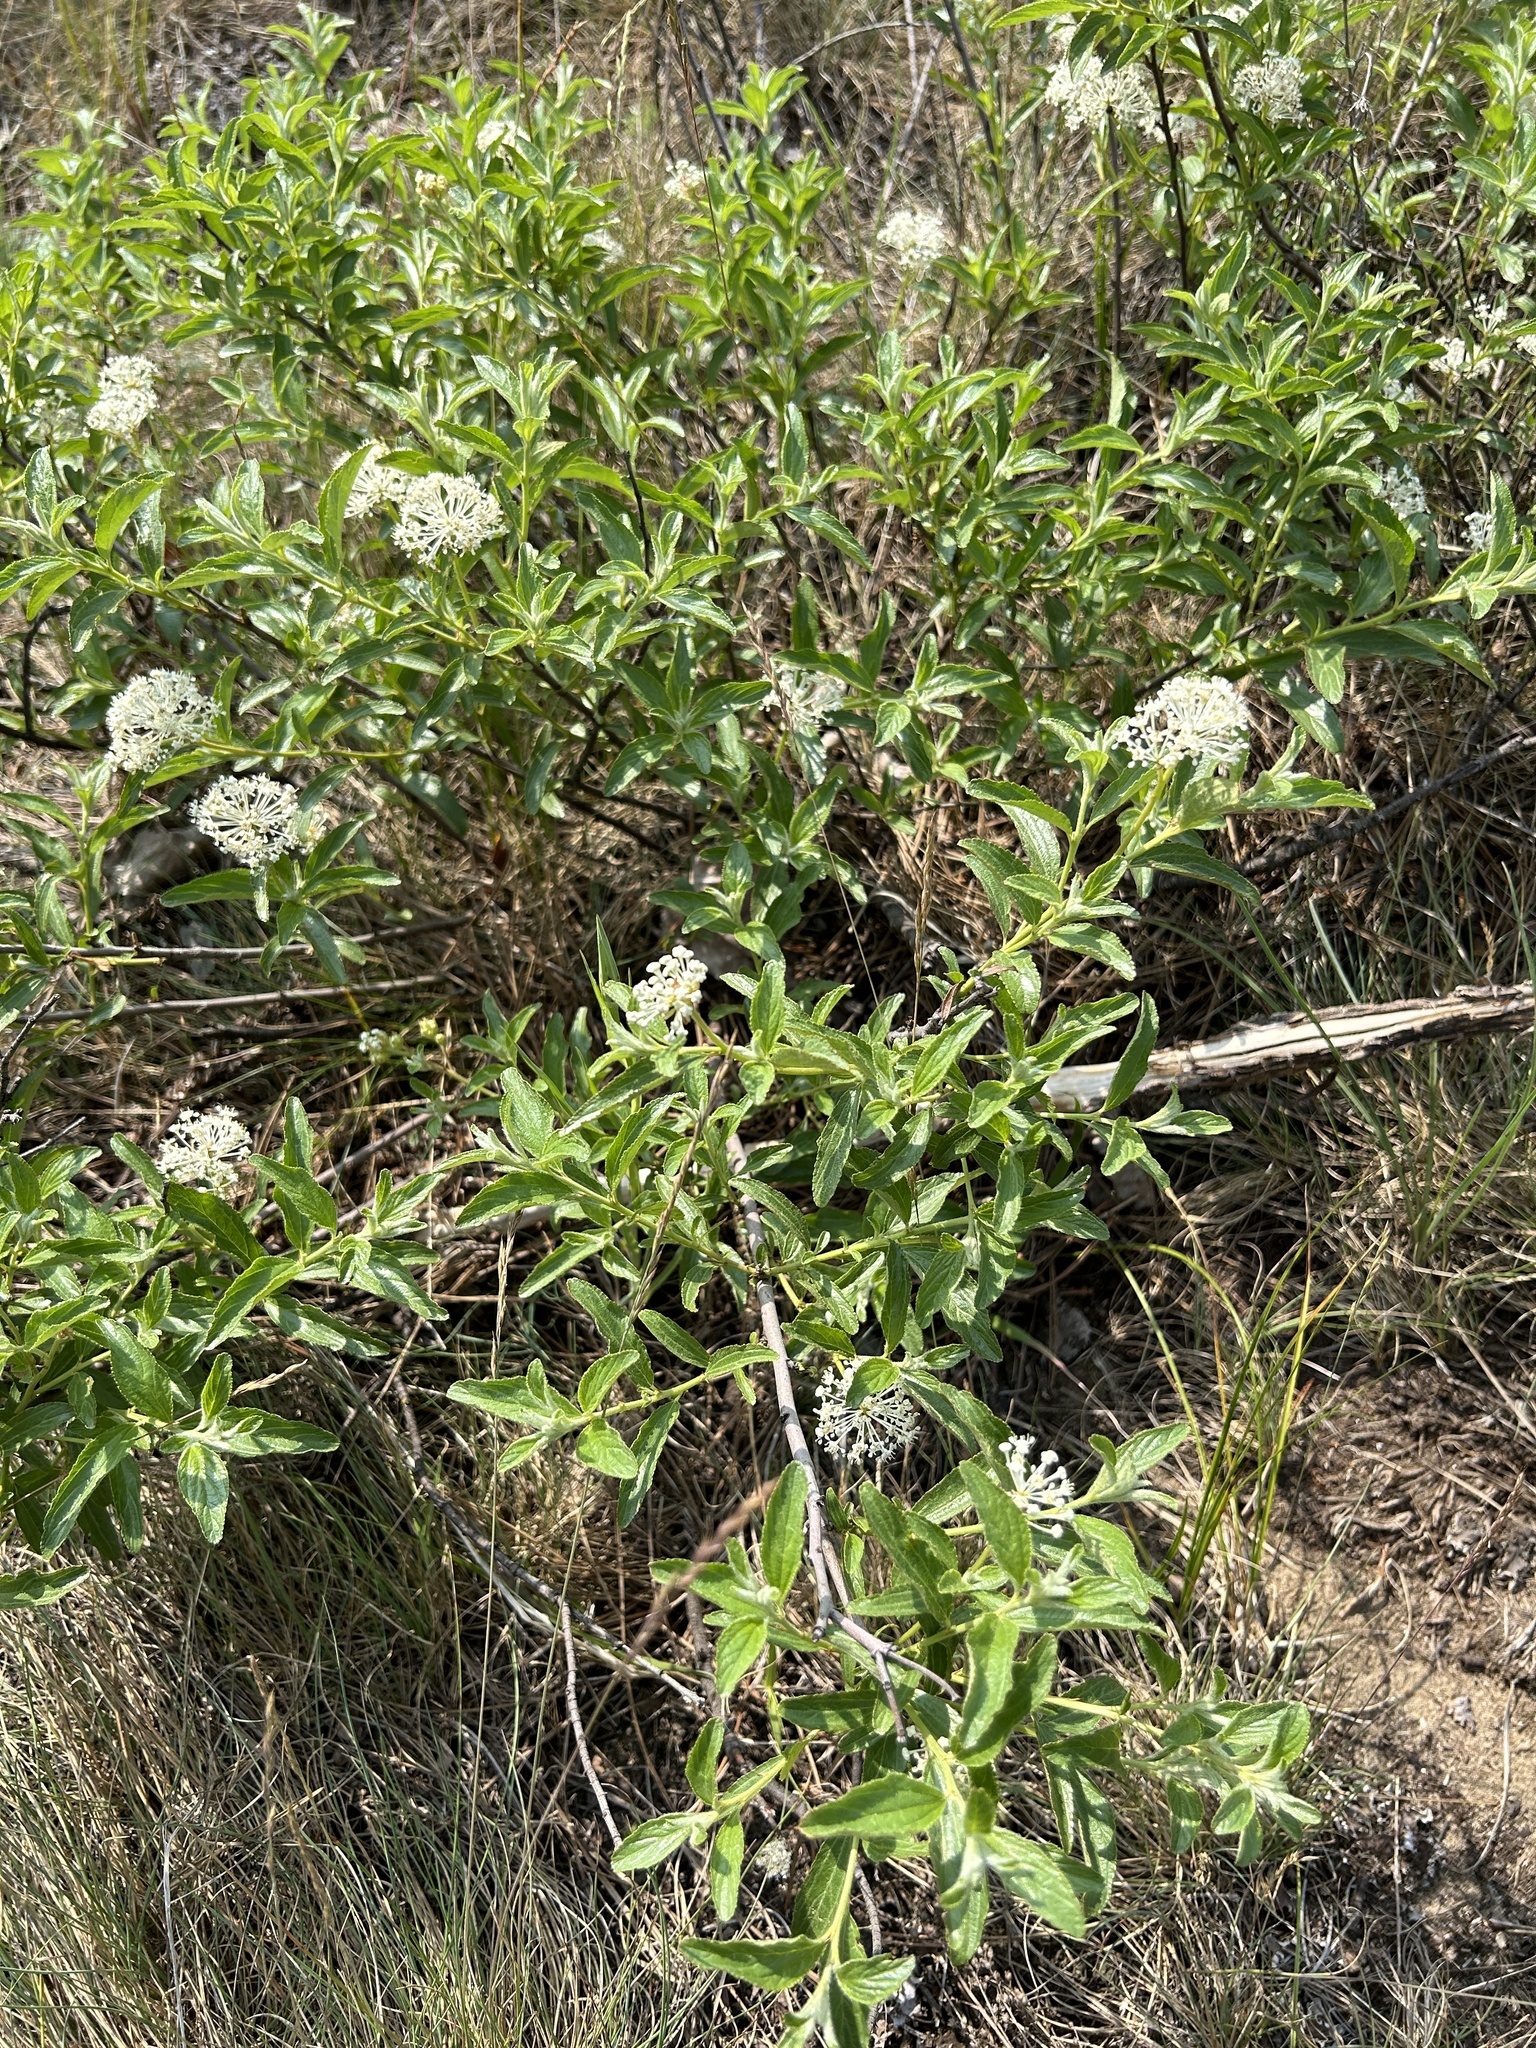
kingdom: Plantae
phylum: Tracheophyta
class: Magnoliopsida
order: Rosales
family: Rhamnaceae
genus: Ceanothus
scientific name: Ceanothus herbaceus
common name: Inland ceanothus
